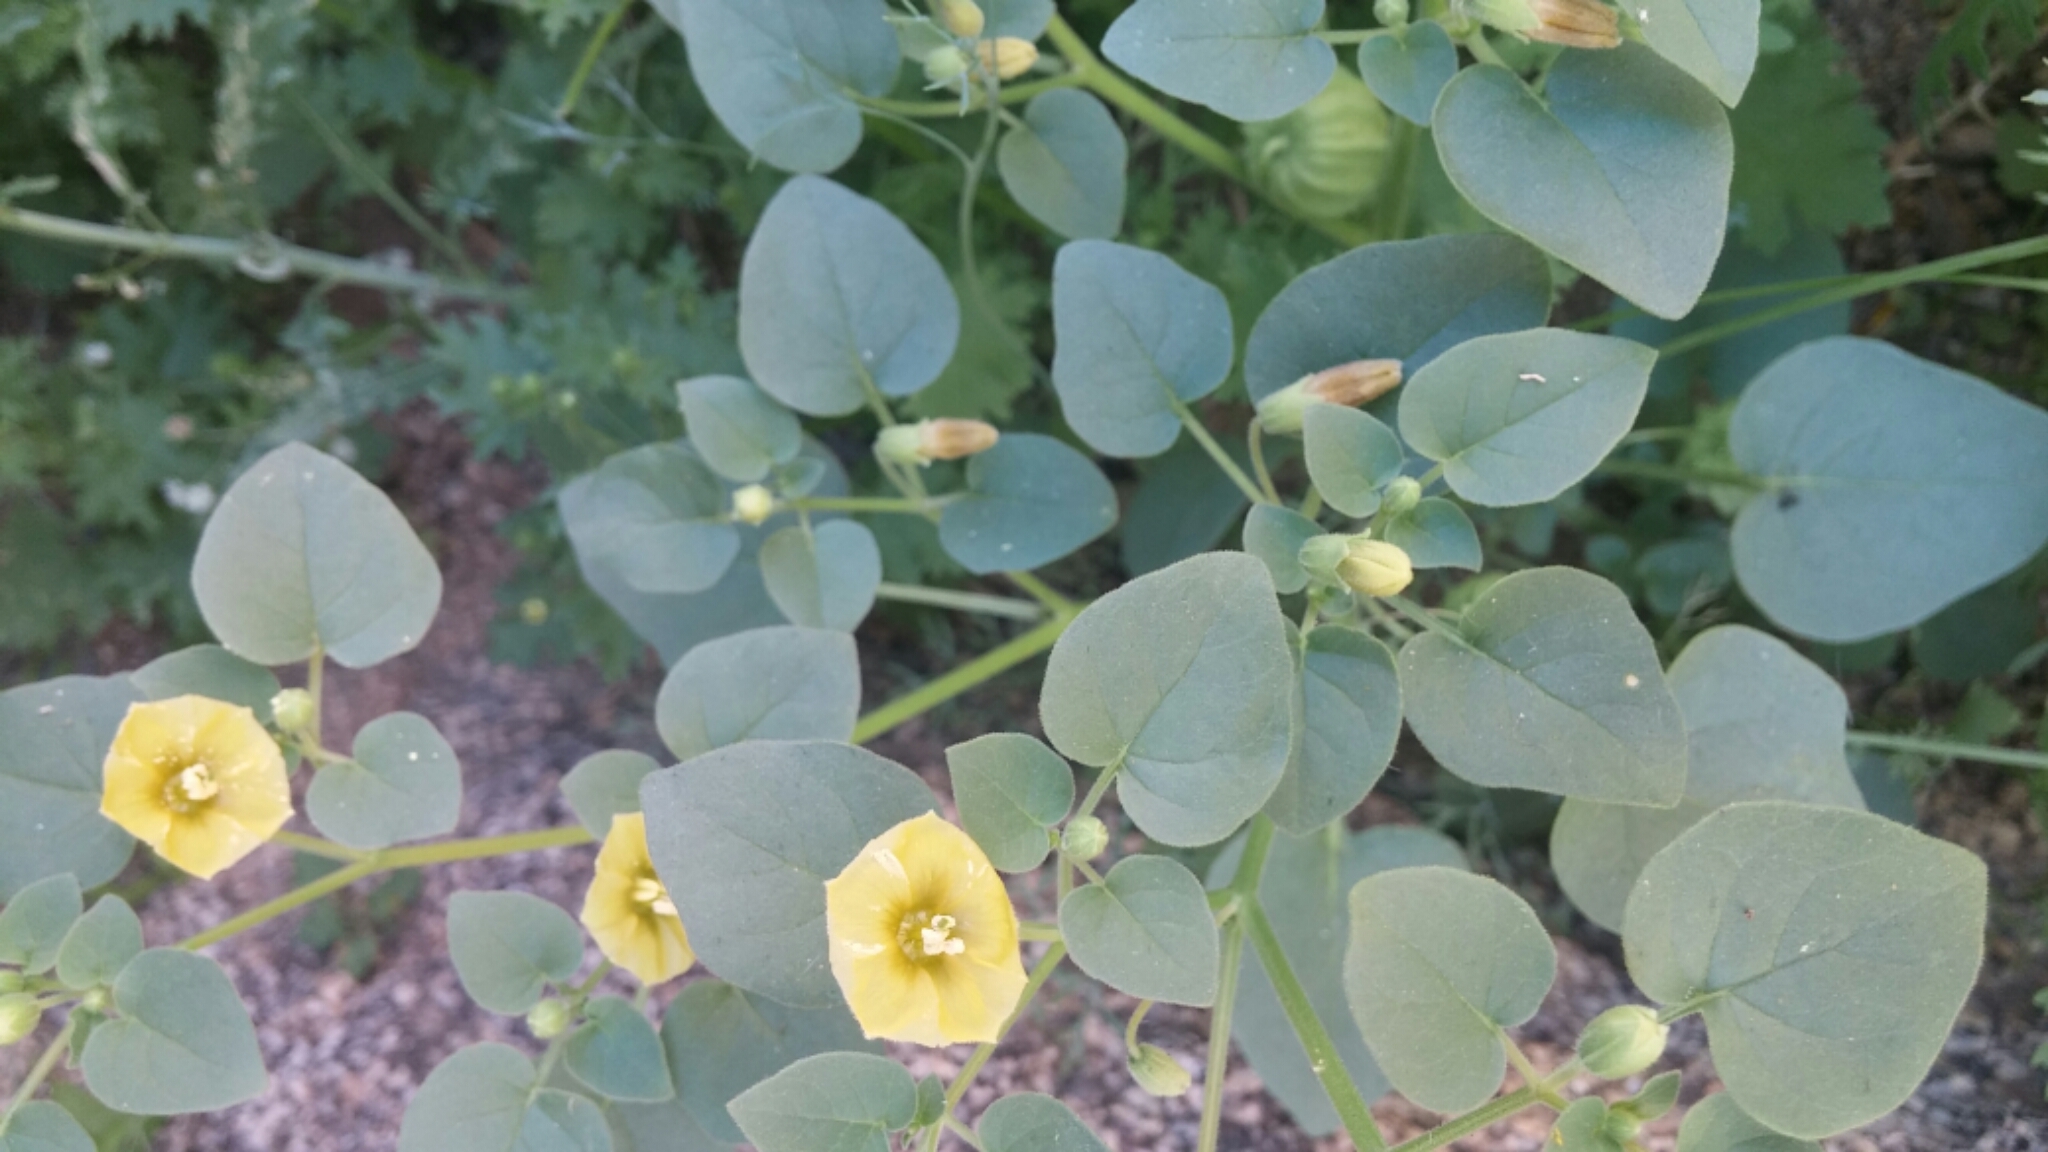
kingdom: Plantae
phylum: Tracheophyta
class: Magnoliopsida
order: Solanales
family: Solanaceae
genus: Physalis
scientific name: Physalis crassifolia
